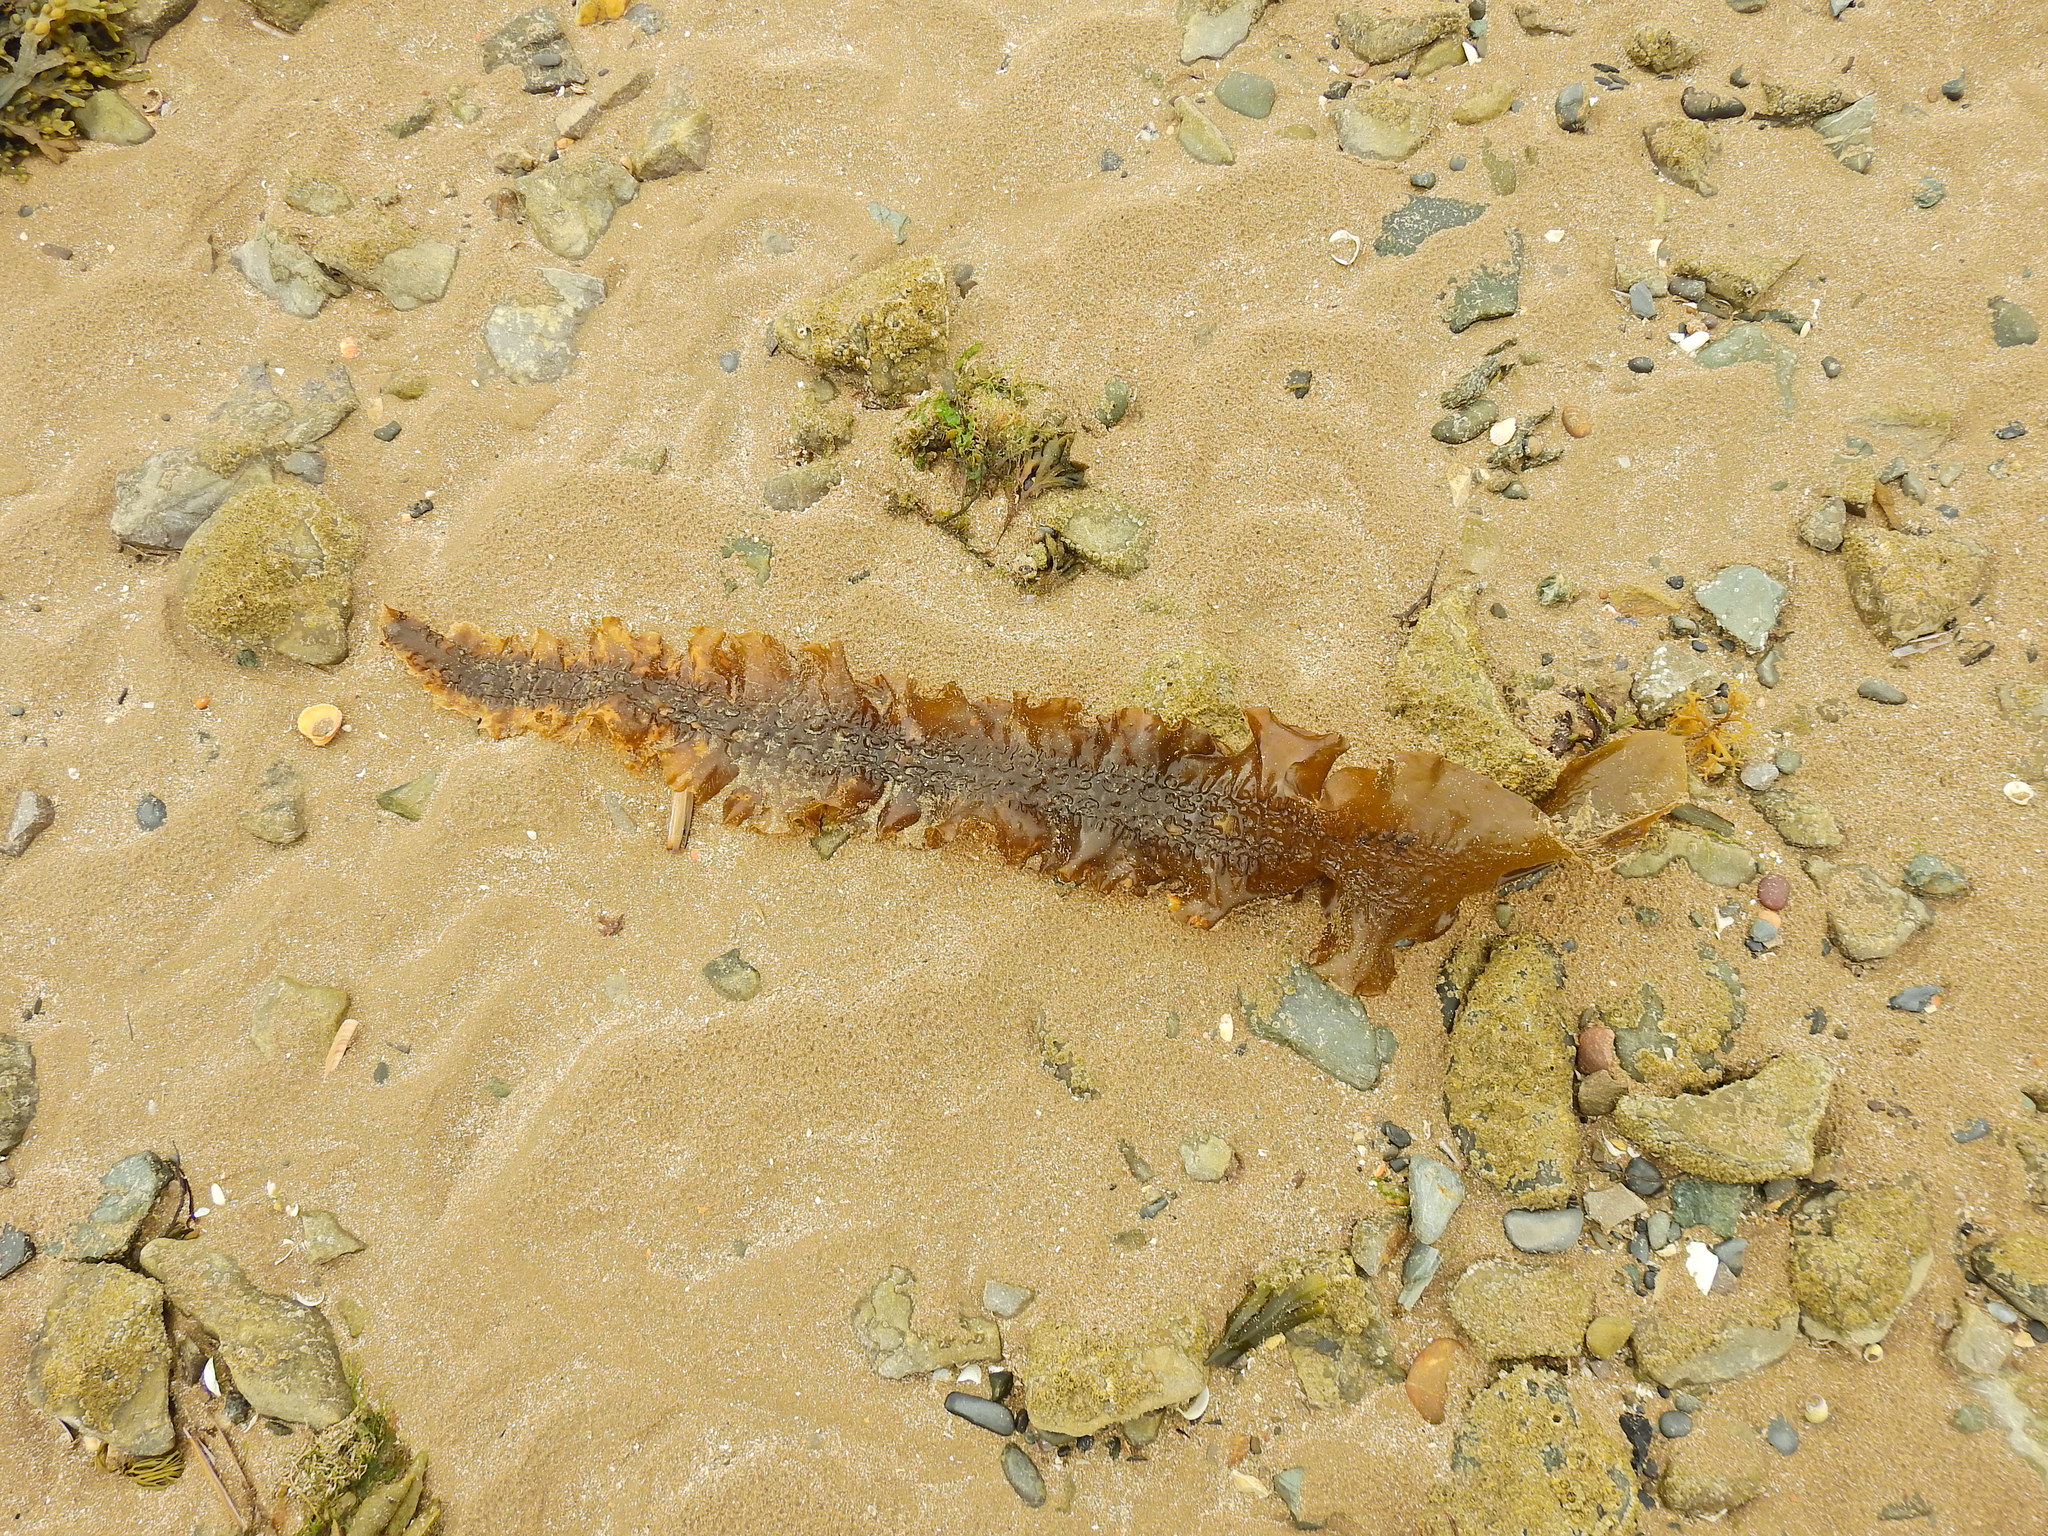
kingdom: Chromista
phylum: Ochrophyta
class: Phaeophyceae
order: Laminariales
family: Laminariaceae
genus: Saccharina
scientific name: Saccharina latissima
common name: Poor man's weather glass
